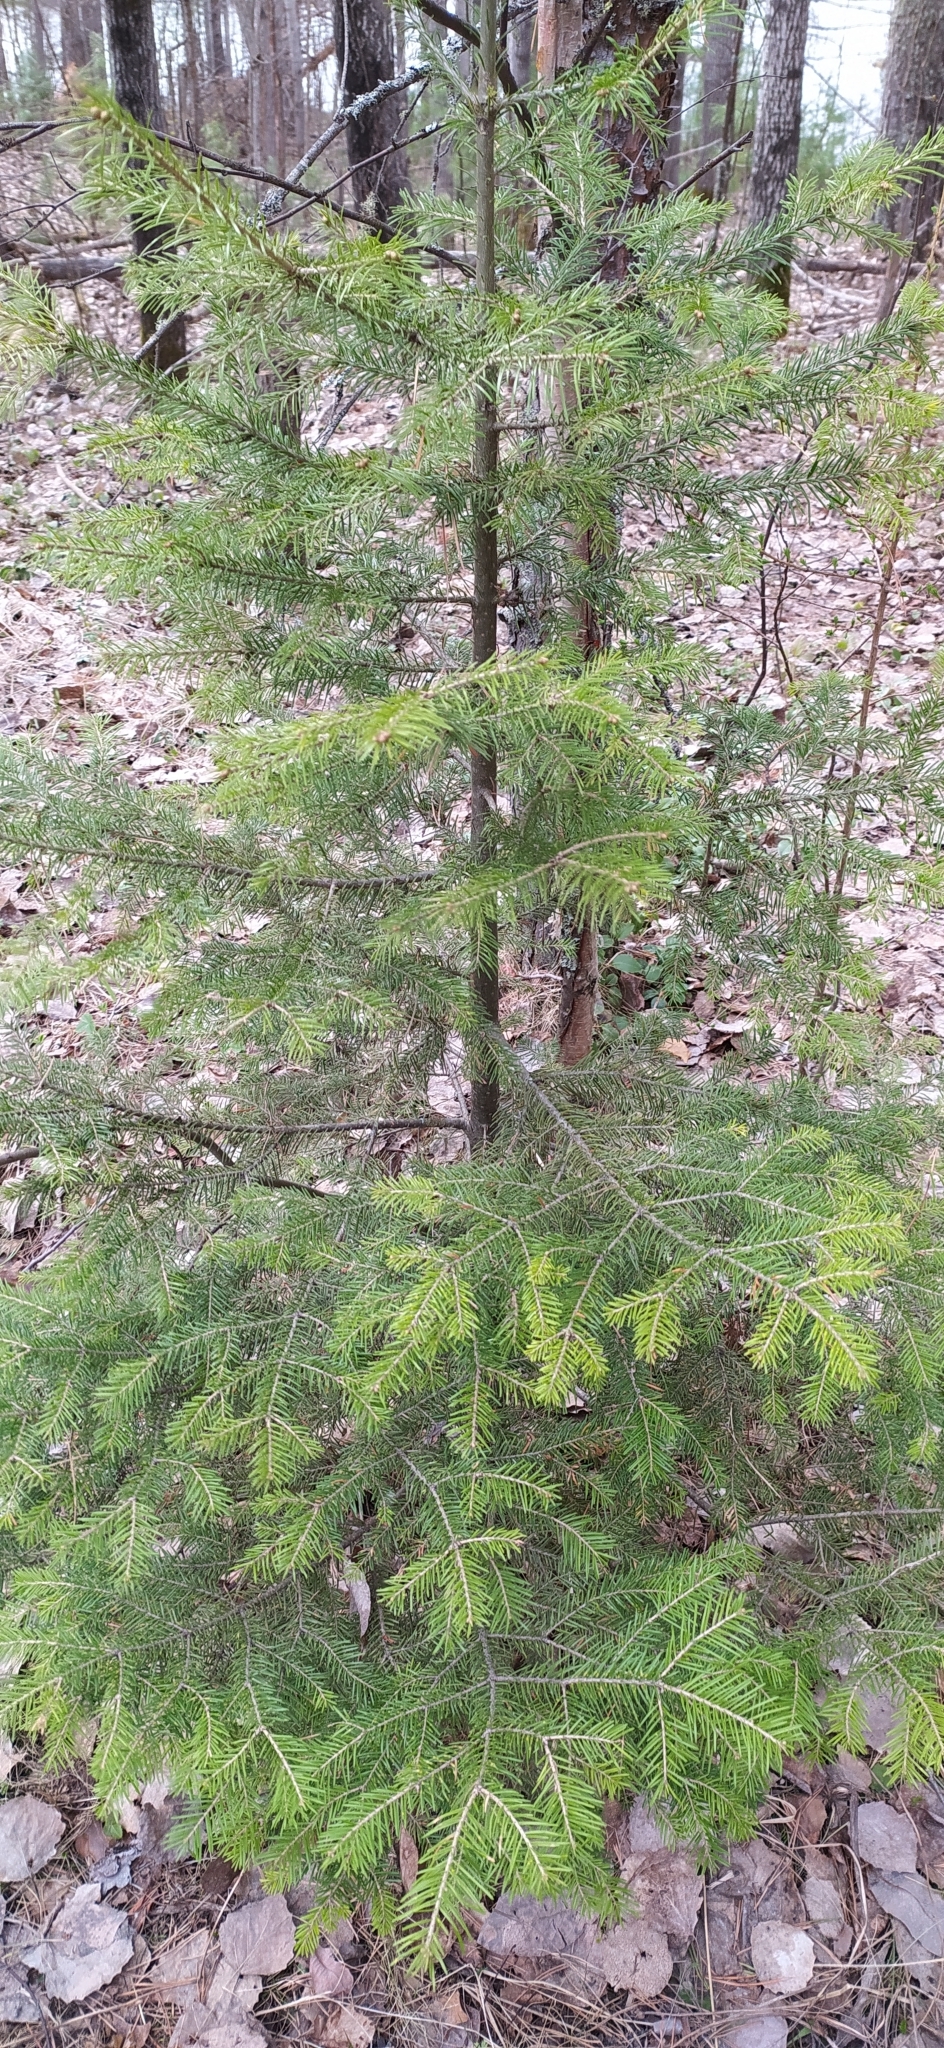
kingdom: Plantae
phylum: Tracheophyta
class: Pinopsida
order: Pinales
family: Pinaceae
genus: Abies
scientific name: Abies sibirica
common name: Siberian fir
